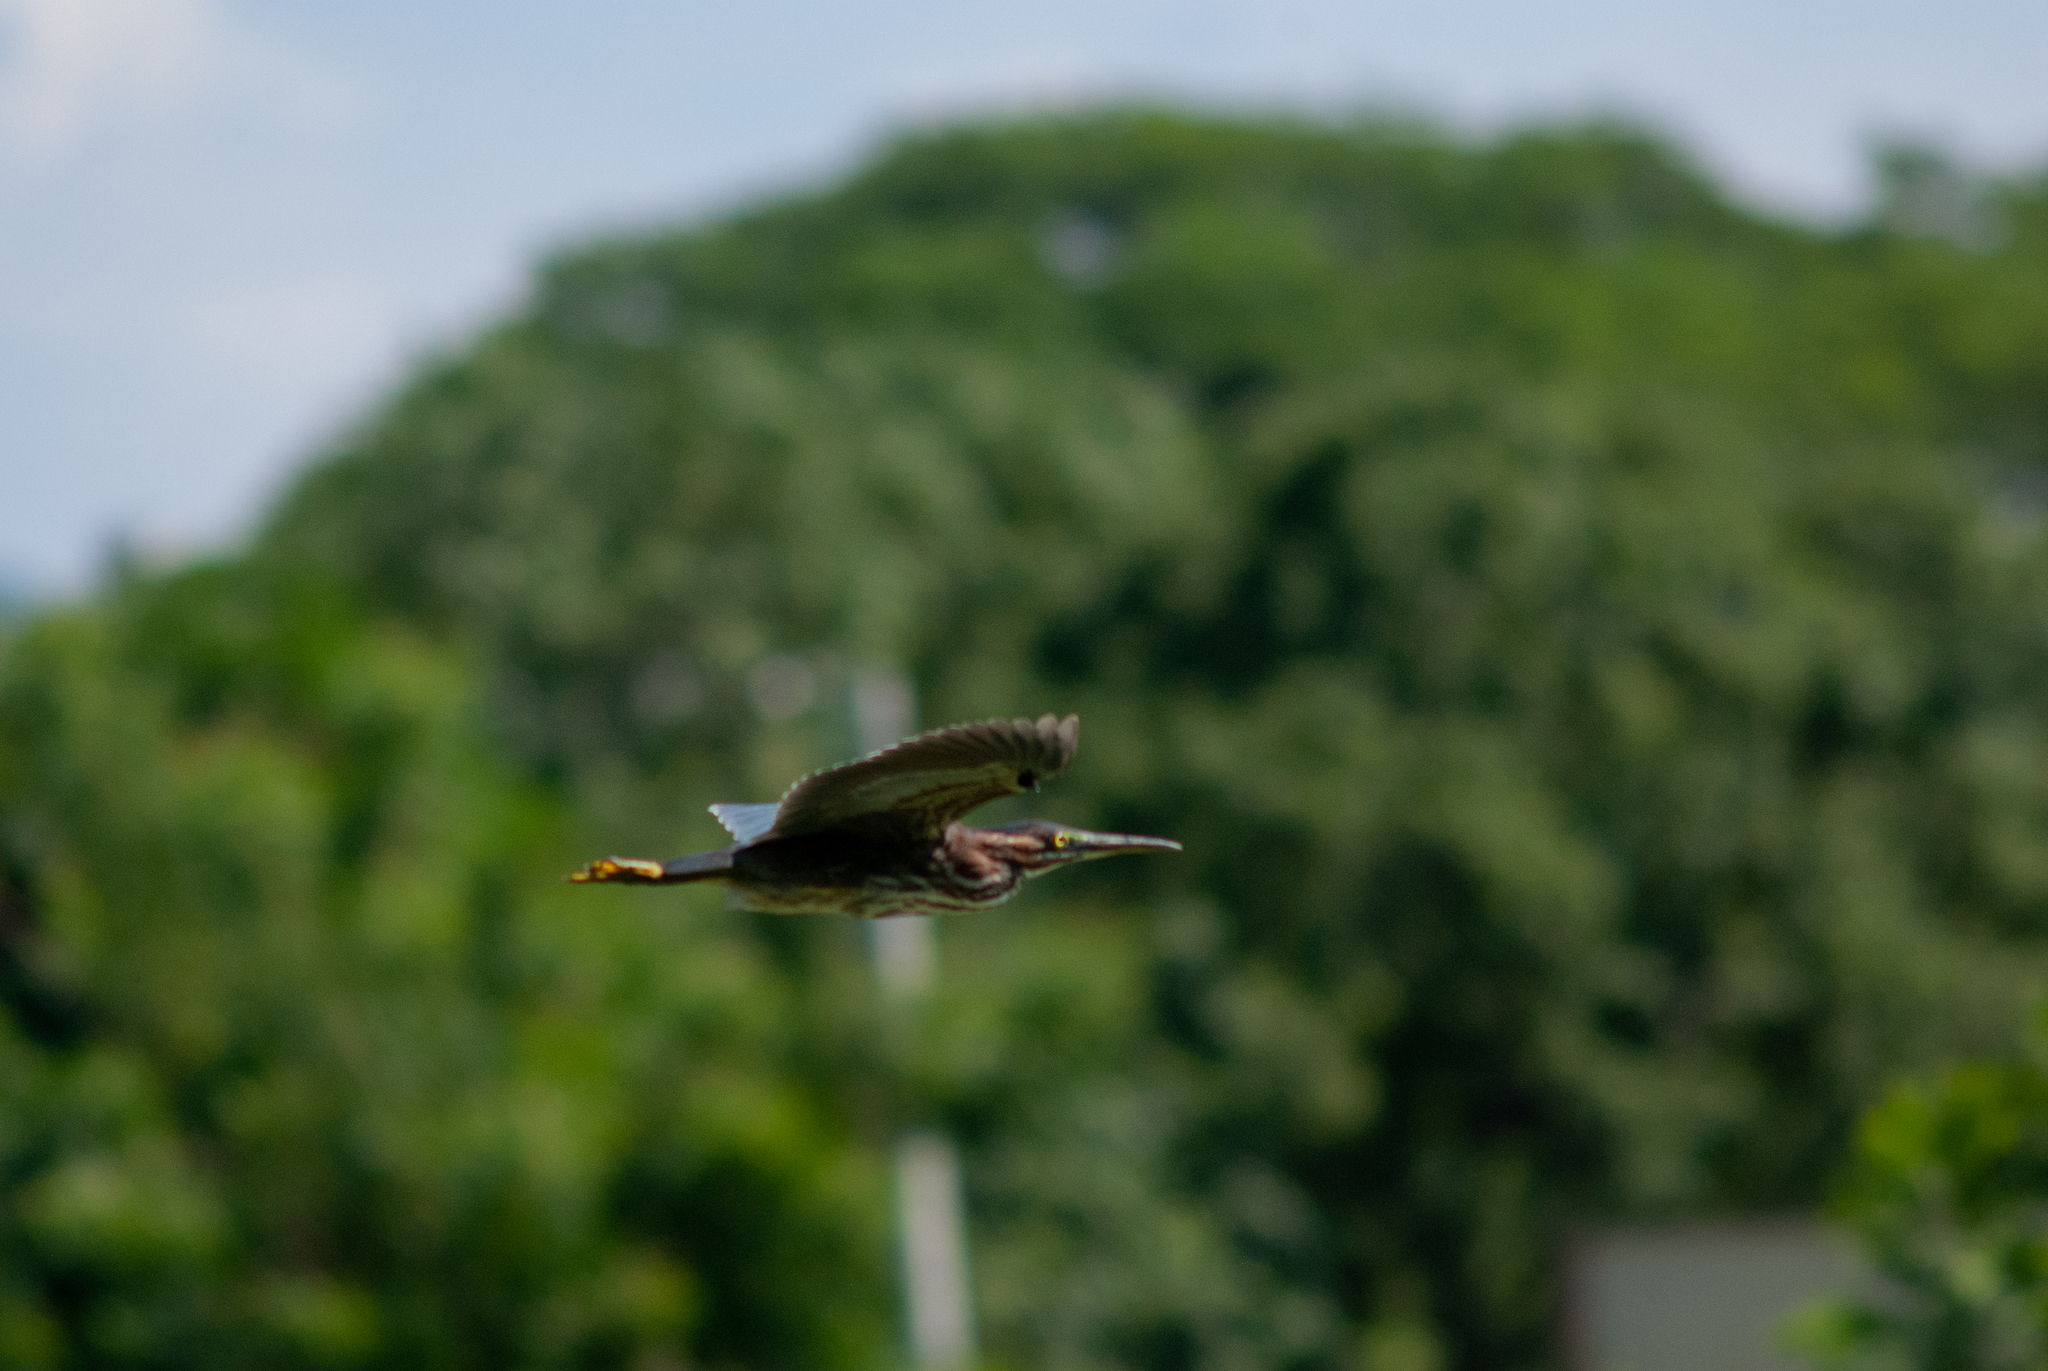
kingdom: Animalia
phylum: Chordata
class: Aves
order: Pelecaniformes
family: Ardeidae
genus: Butorides
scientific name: Butorides virescens
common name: Green heron
